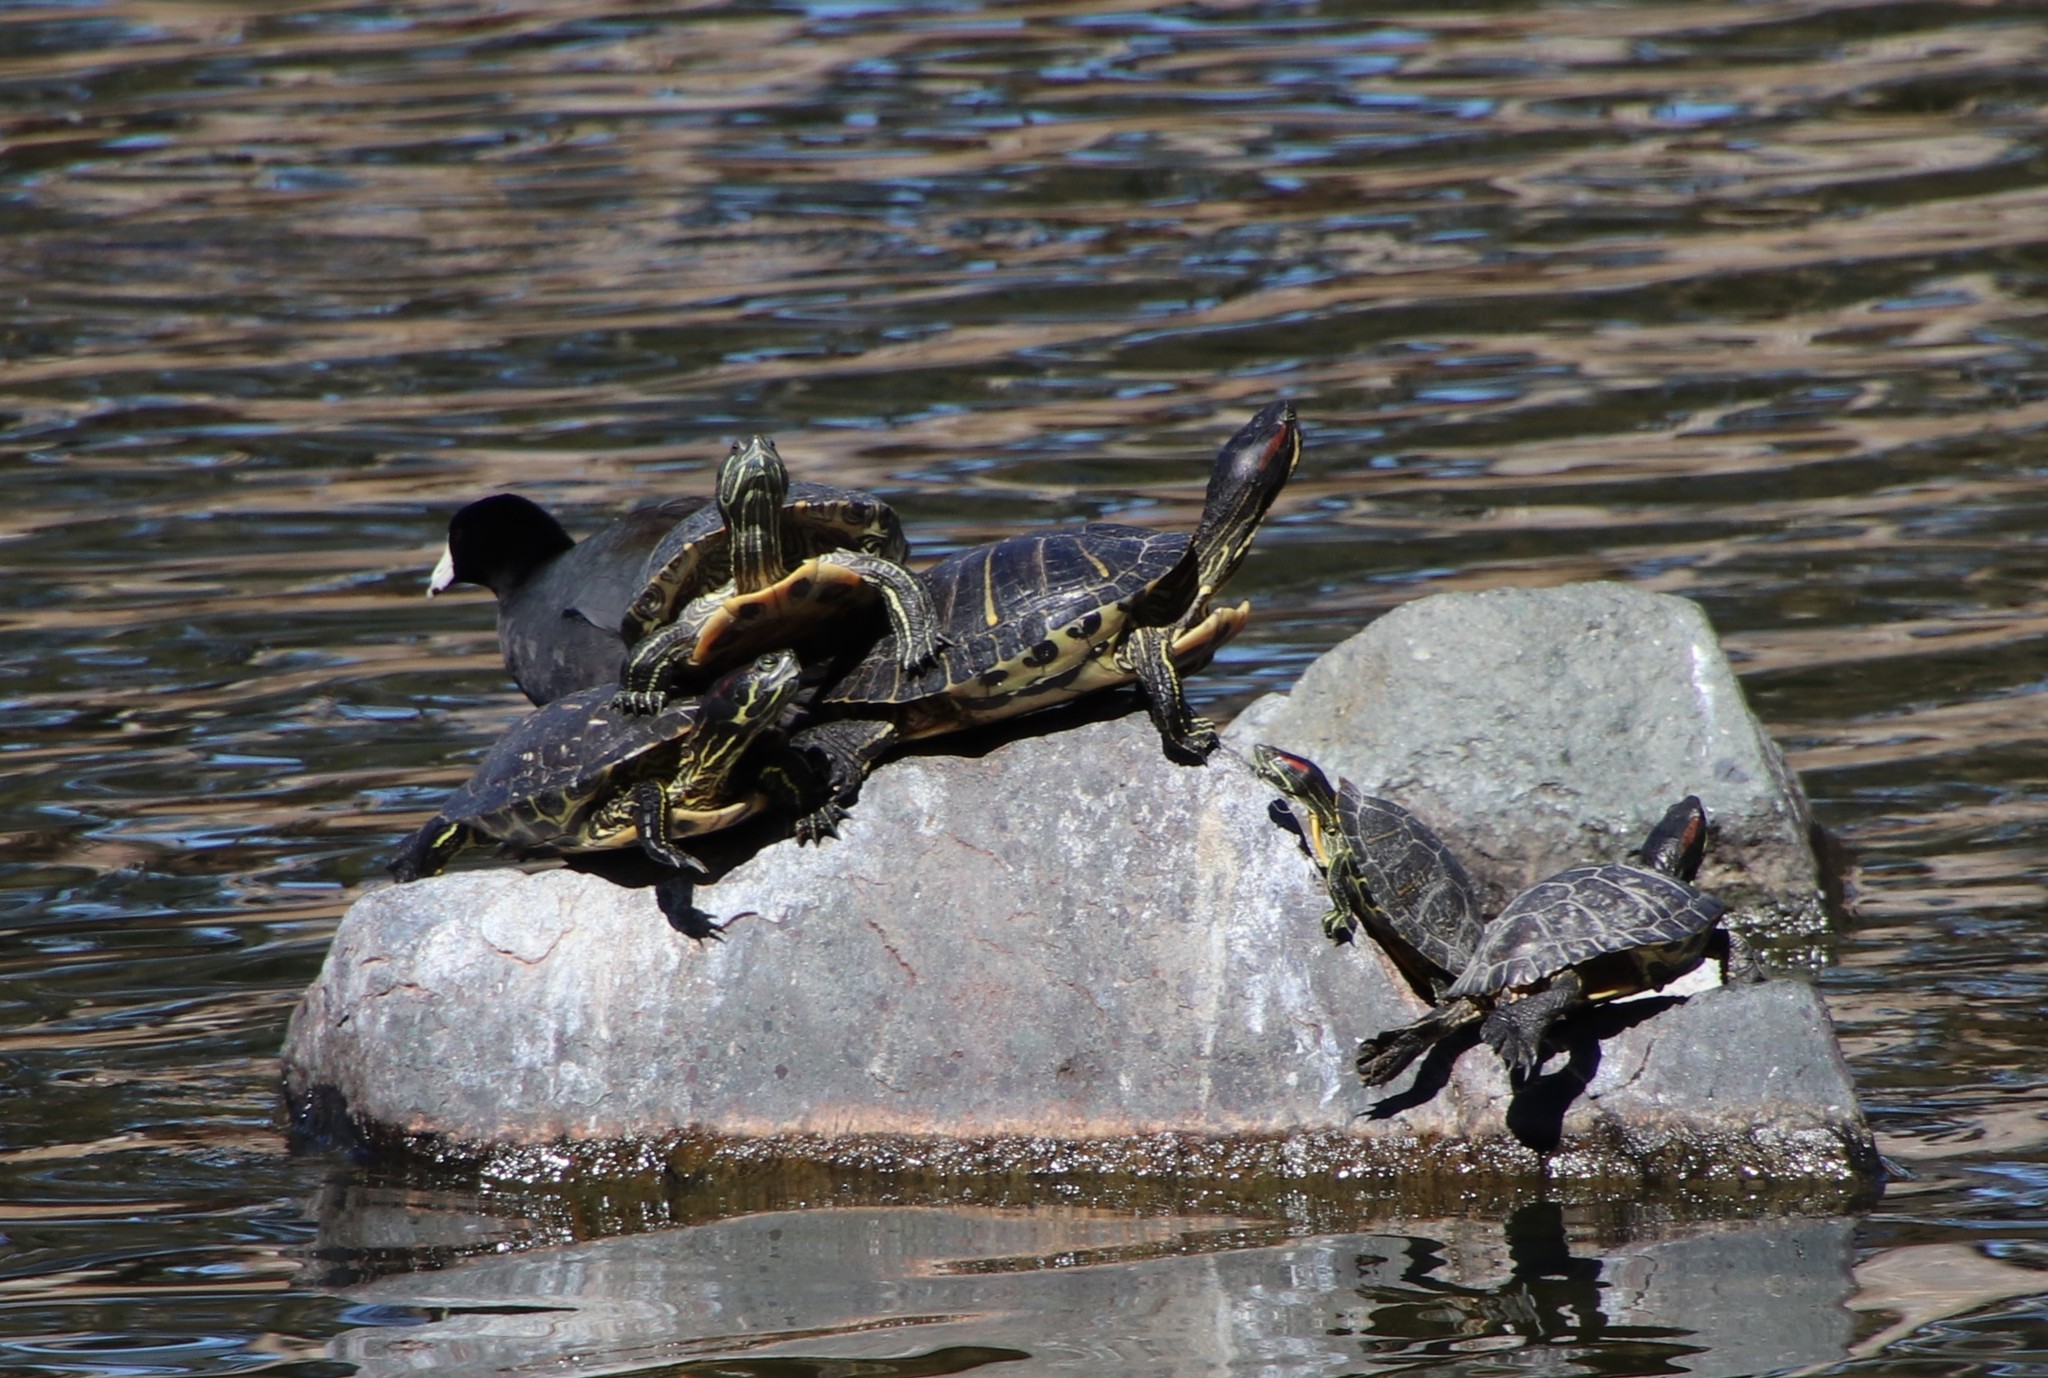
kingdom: Animalia
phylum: Chordata
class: Testudines
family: Emydidae
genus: Trachemys
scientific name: Trachemys scripta
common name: Slider
